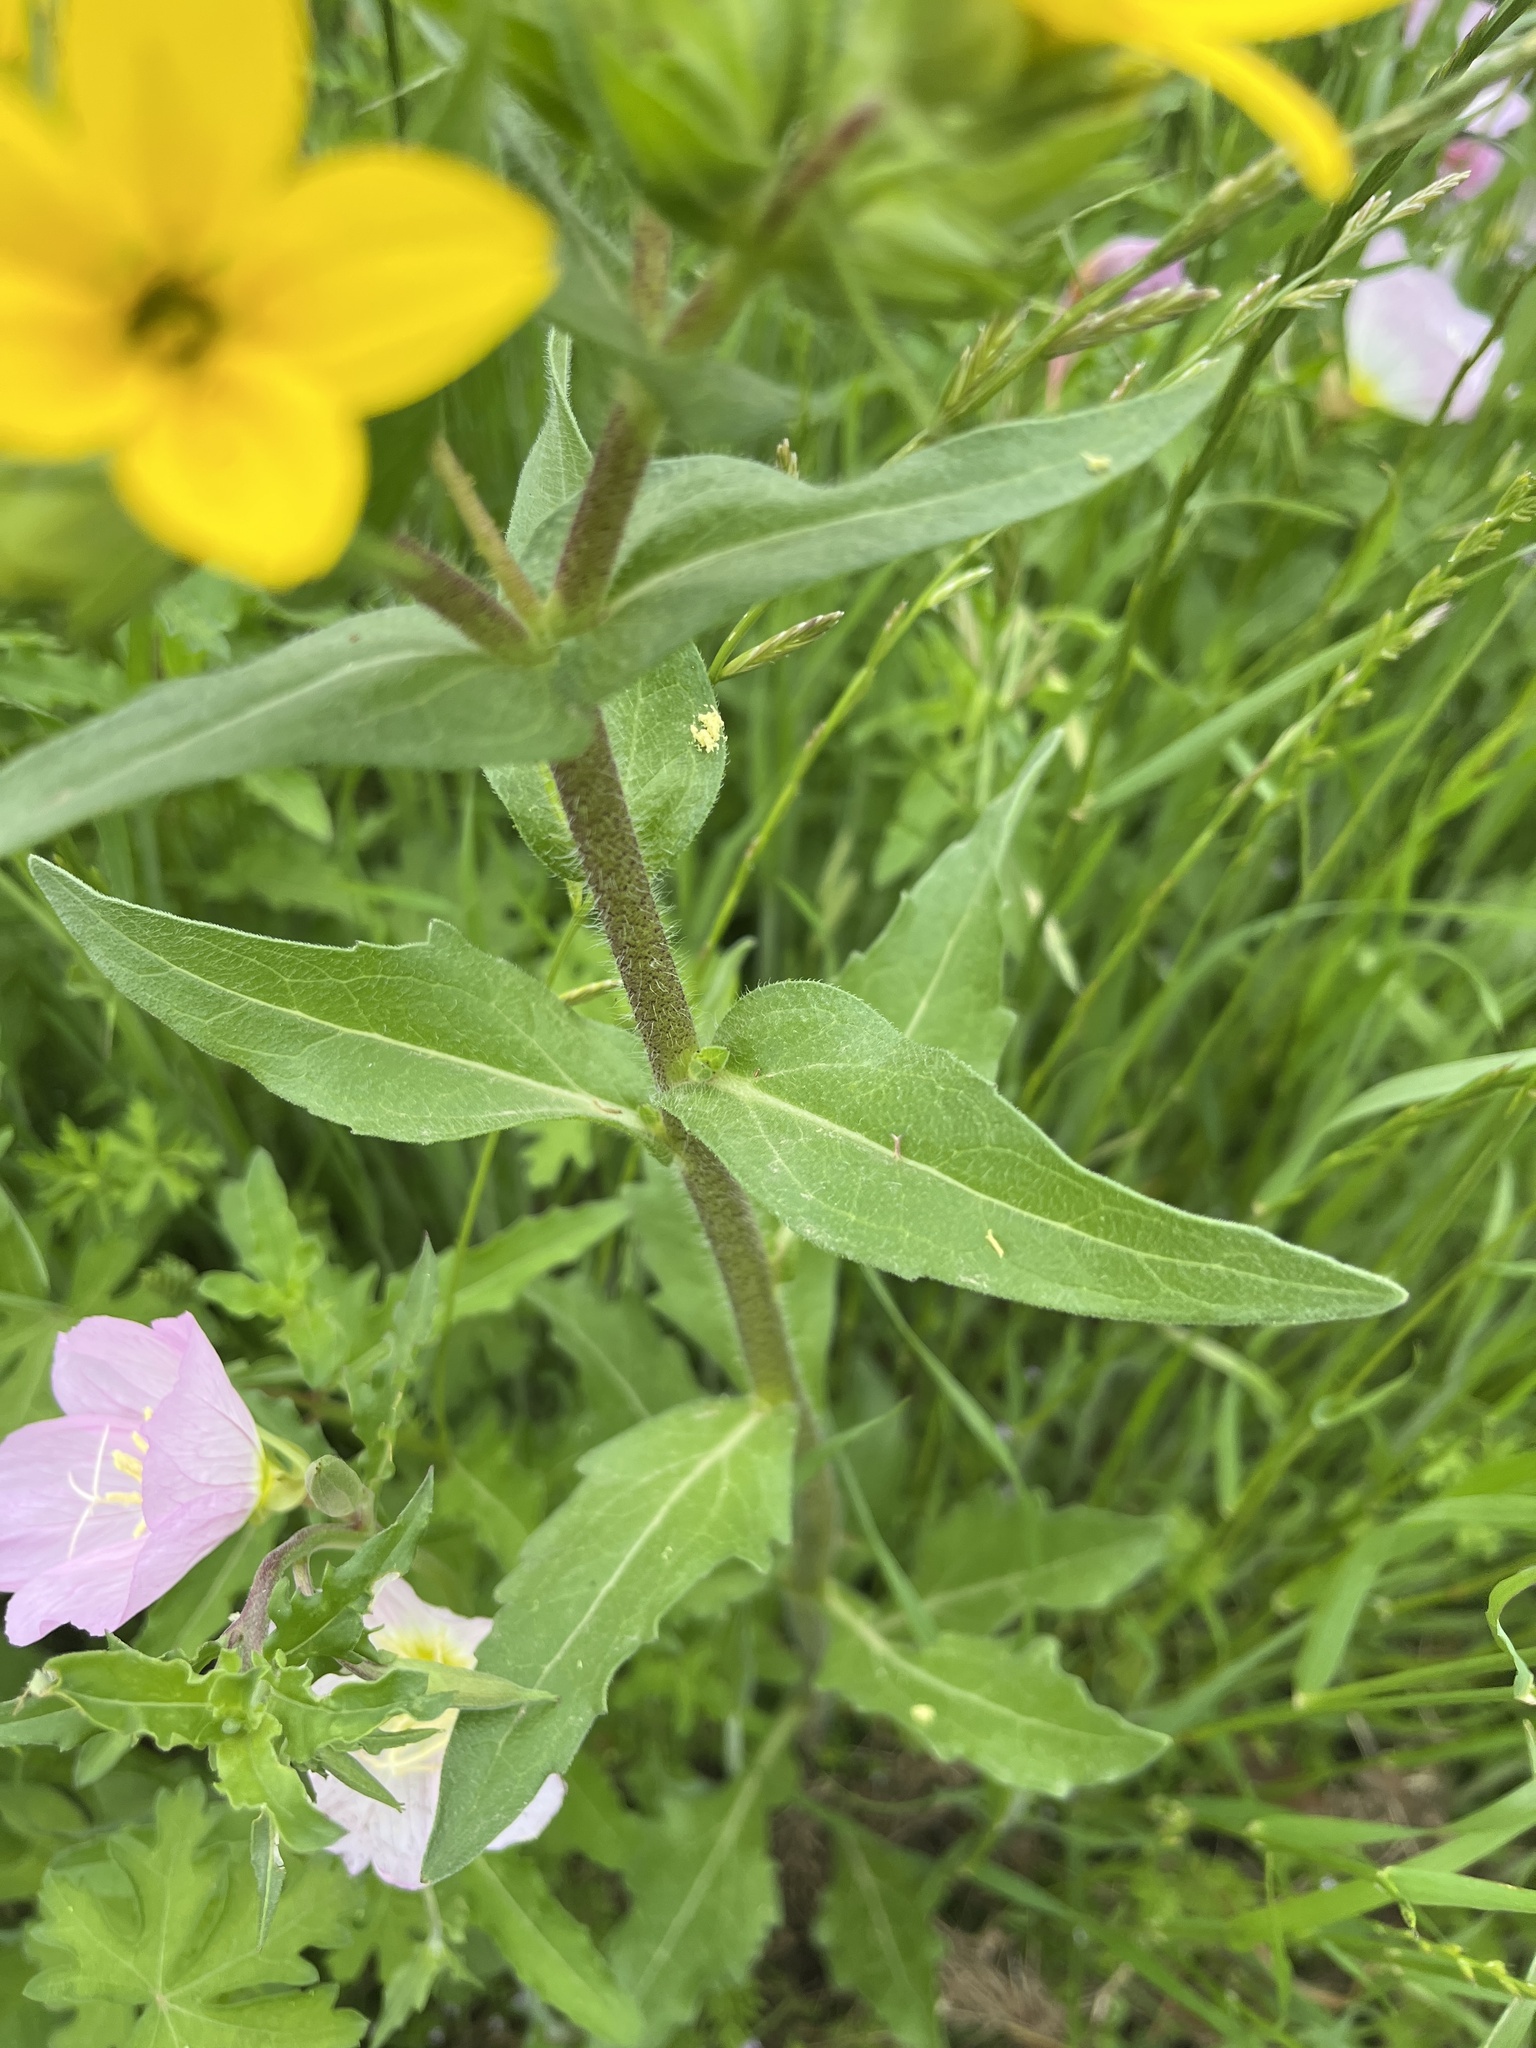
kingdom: Plantae
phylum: Tracheophyta
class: Magnoliopsida
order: Asterales
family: Asteraceae
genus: Lindheimera
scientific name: Lindheimera texana
